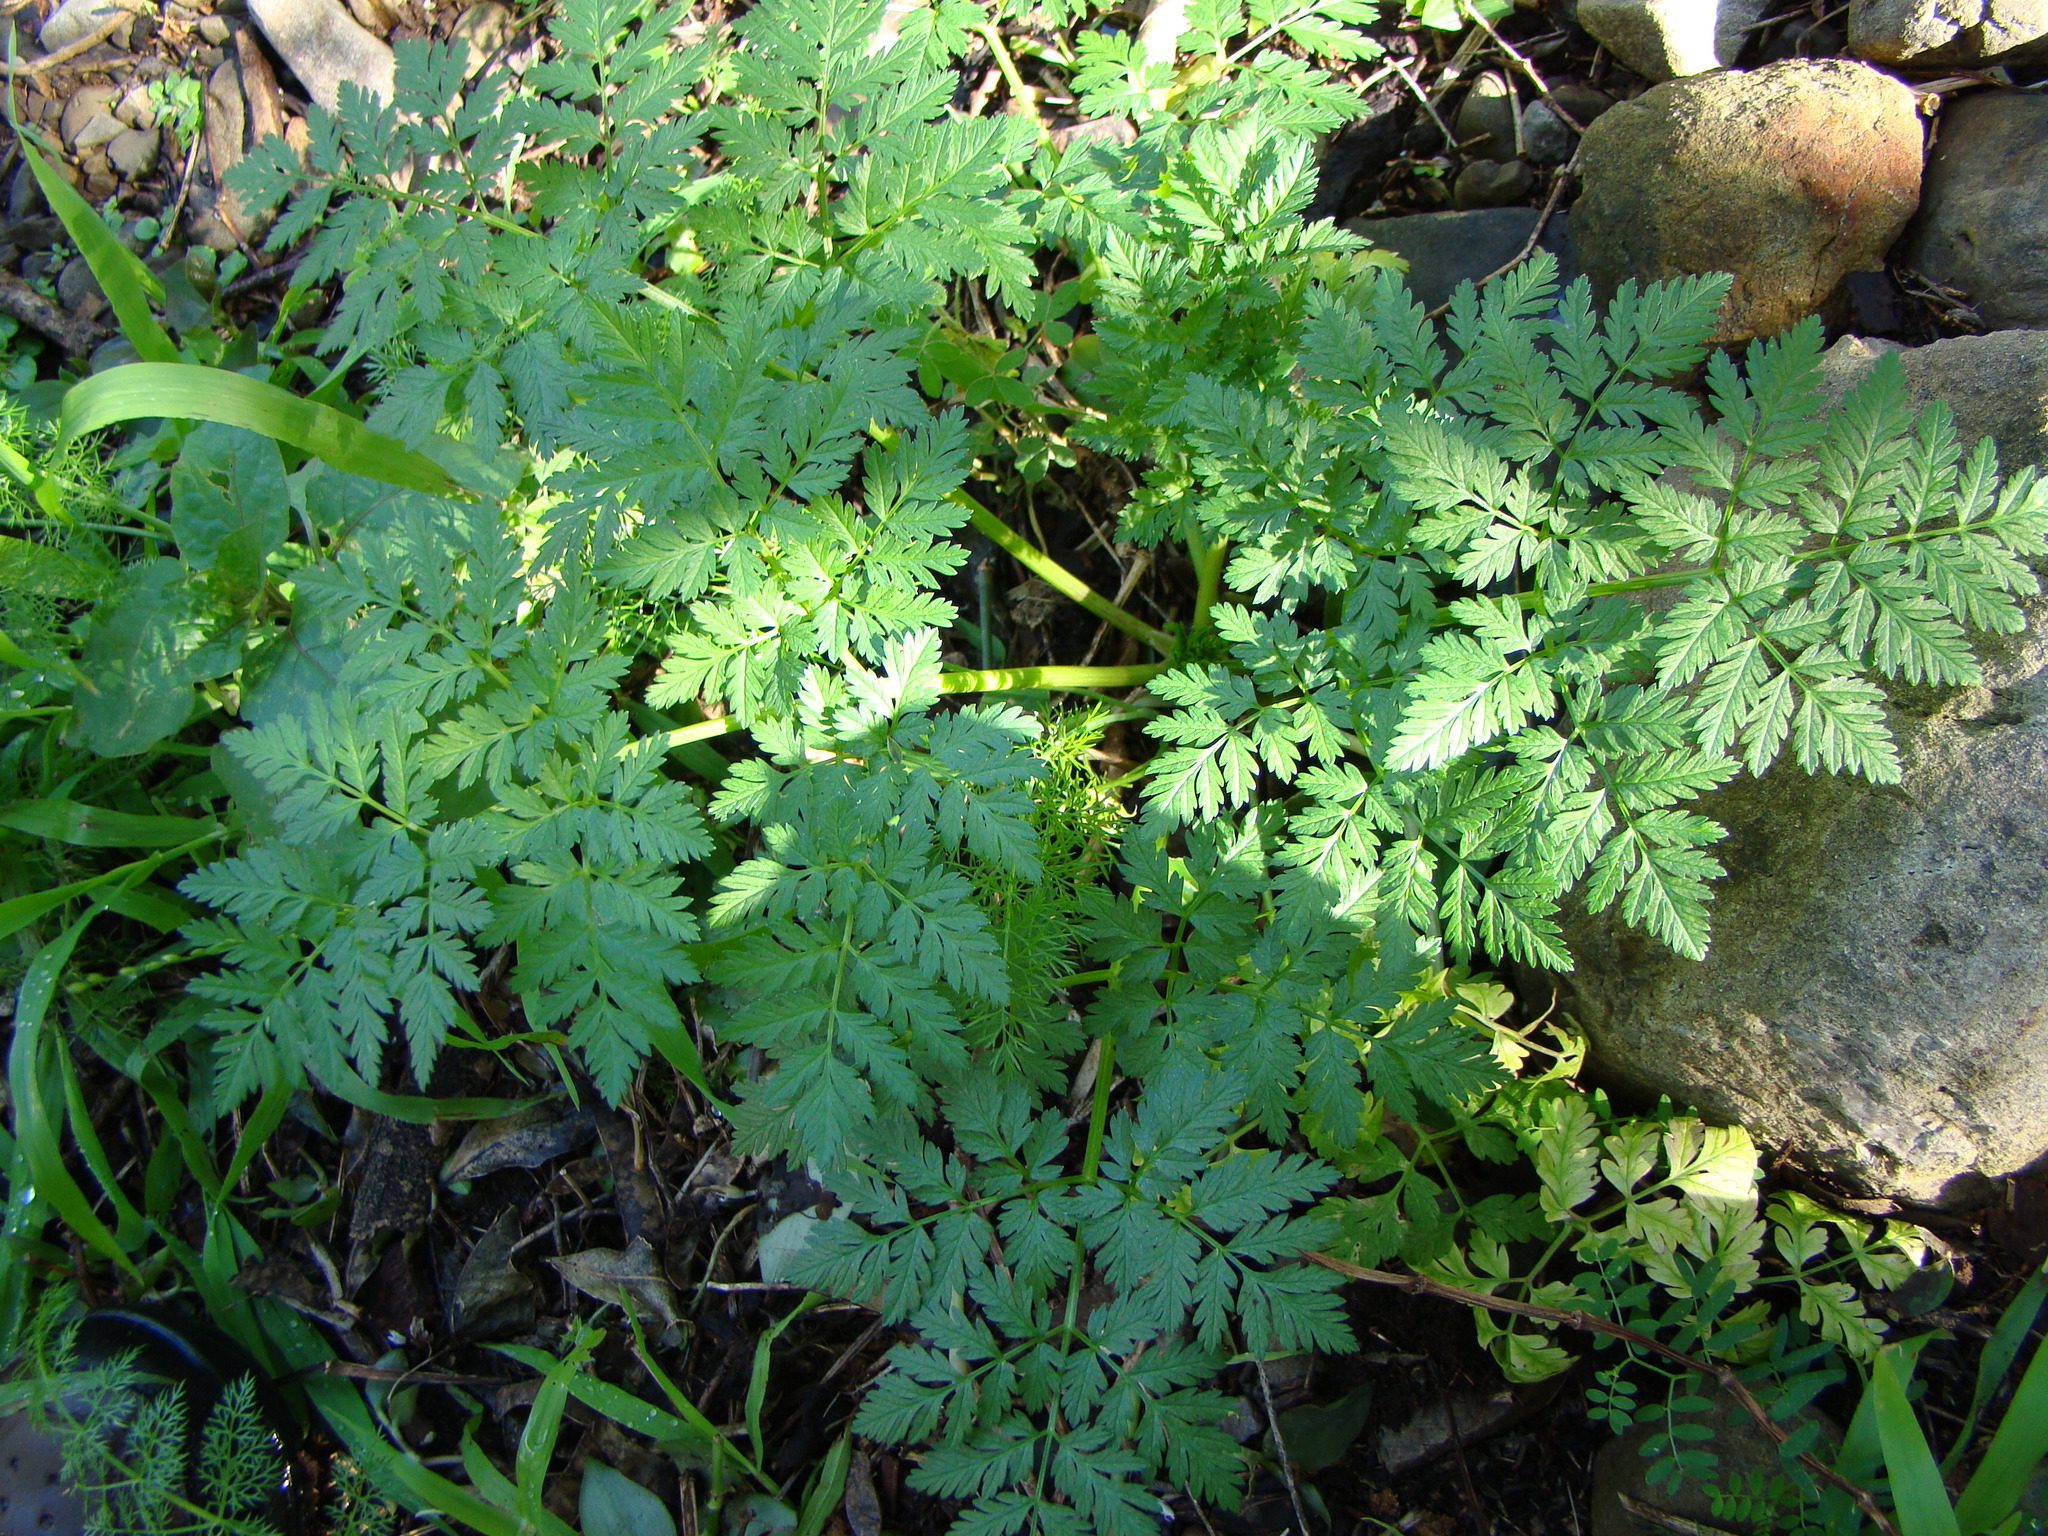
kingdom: Plantae
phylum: Tracheophyta
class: Magnoliopsida
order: Apiales
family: Apiaceae
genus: Conium
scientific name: Conium maculatum
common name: Hemlock
